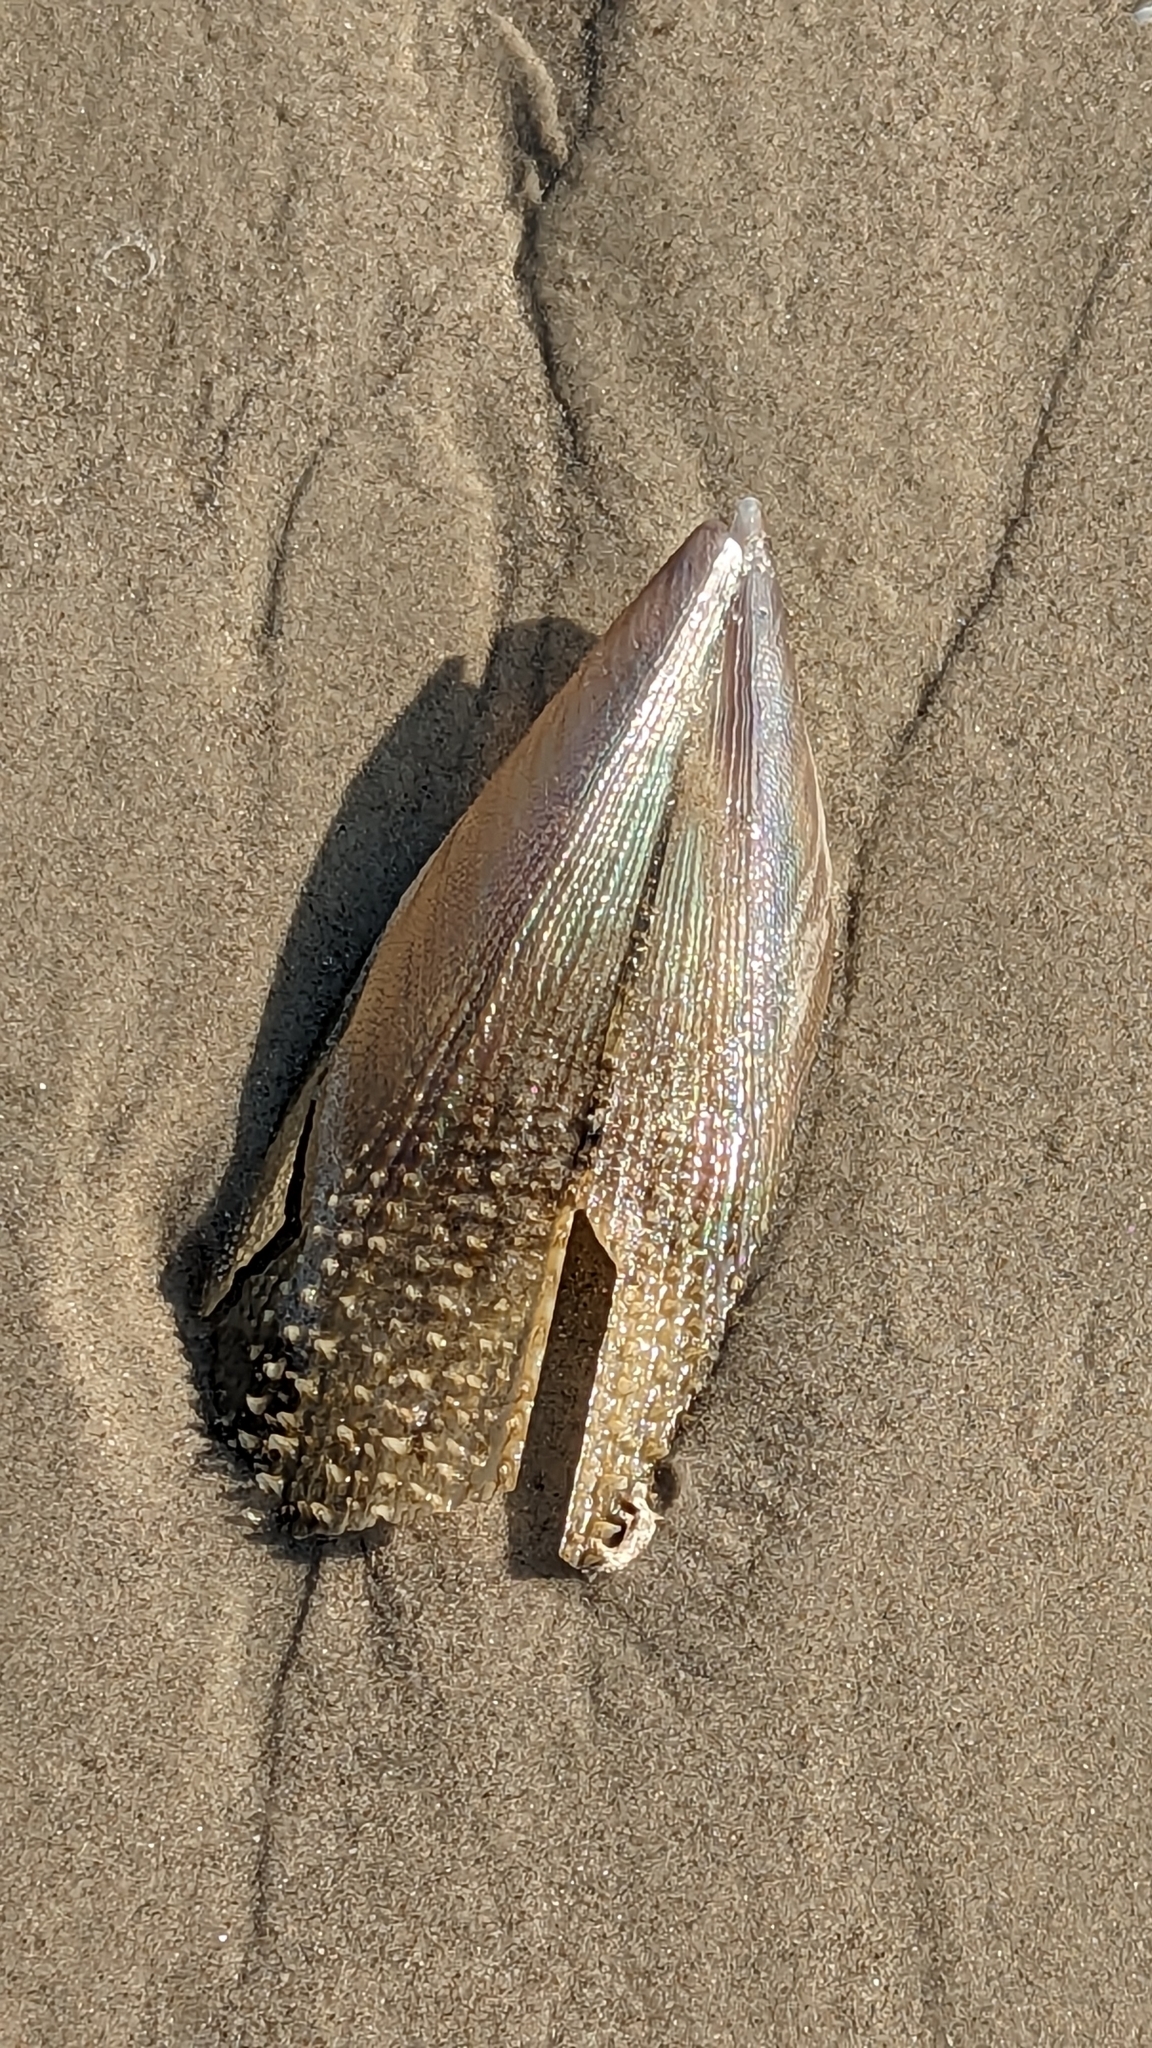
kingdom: Animalia
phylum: Mollusca
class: Bivalvia
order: Ostreida
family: Pinnidae
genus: Atrina
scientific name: Atrina serrata
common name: Saw-toothed penshell
